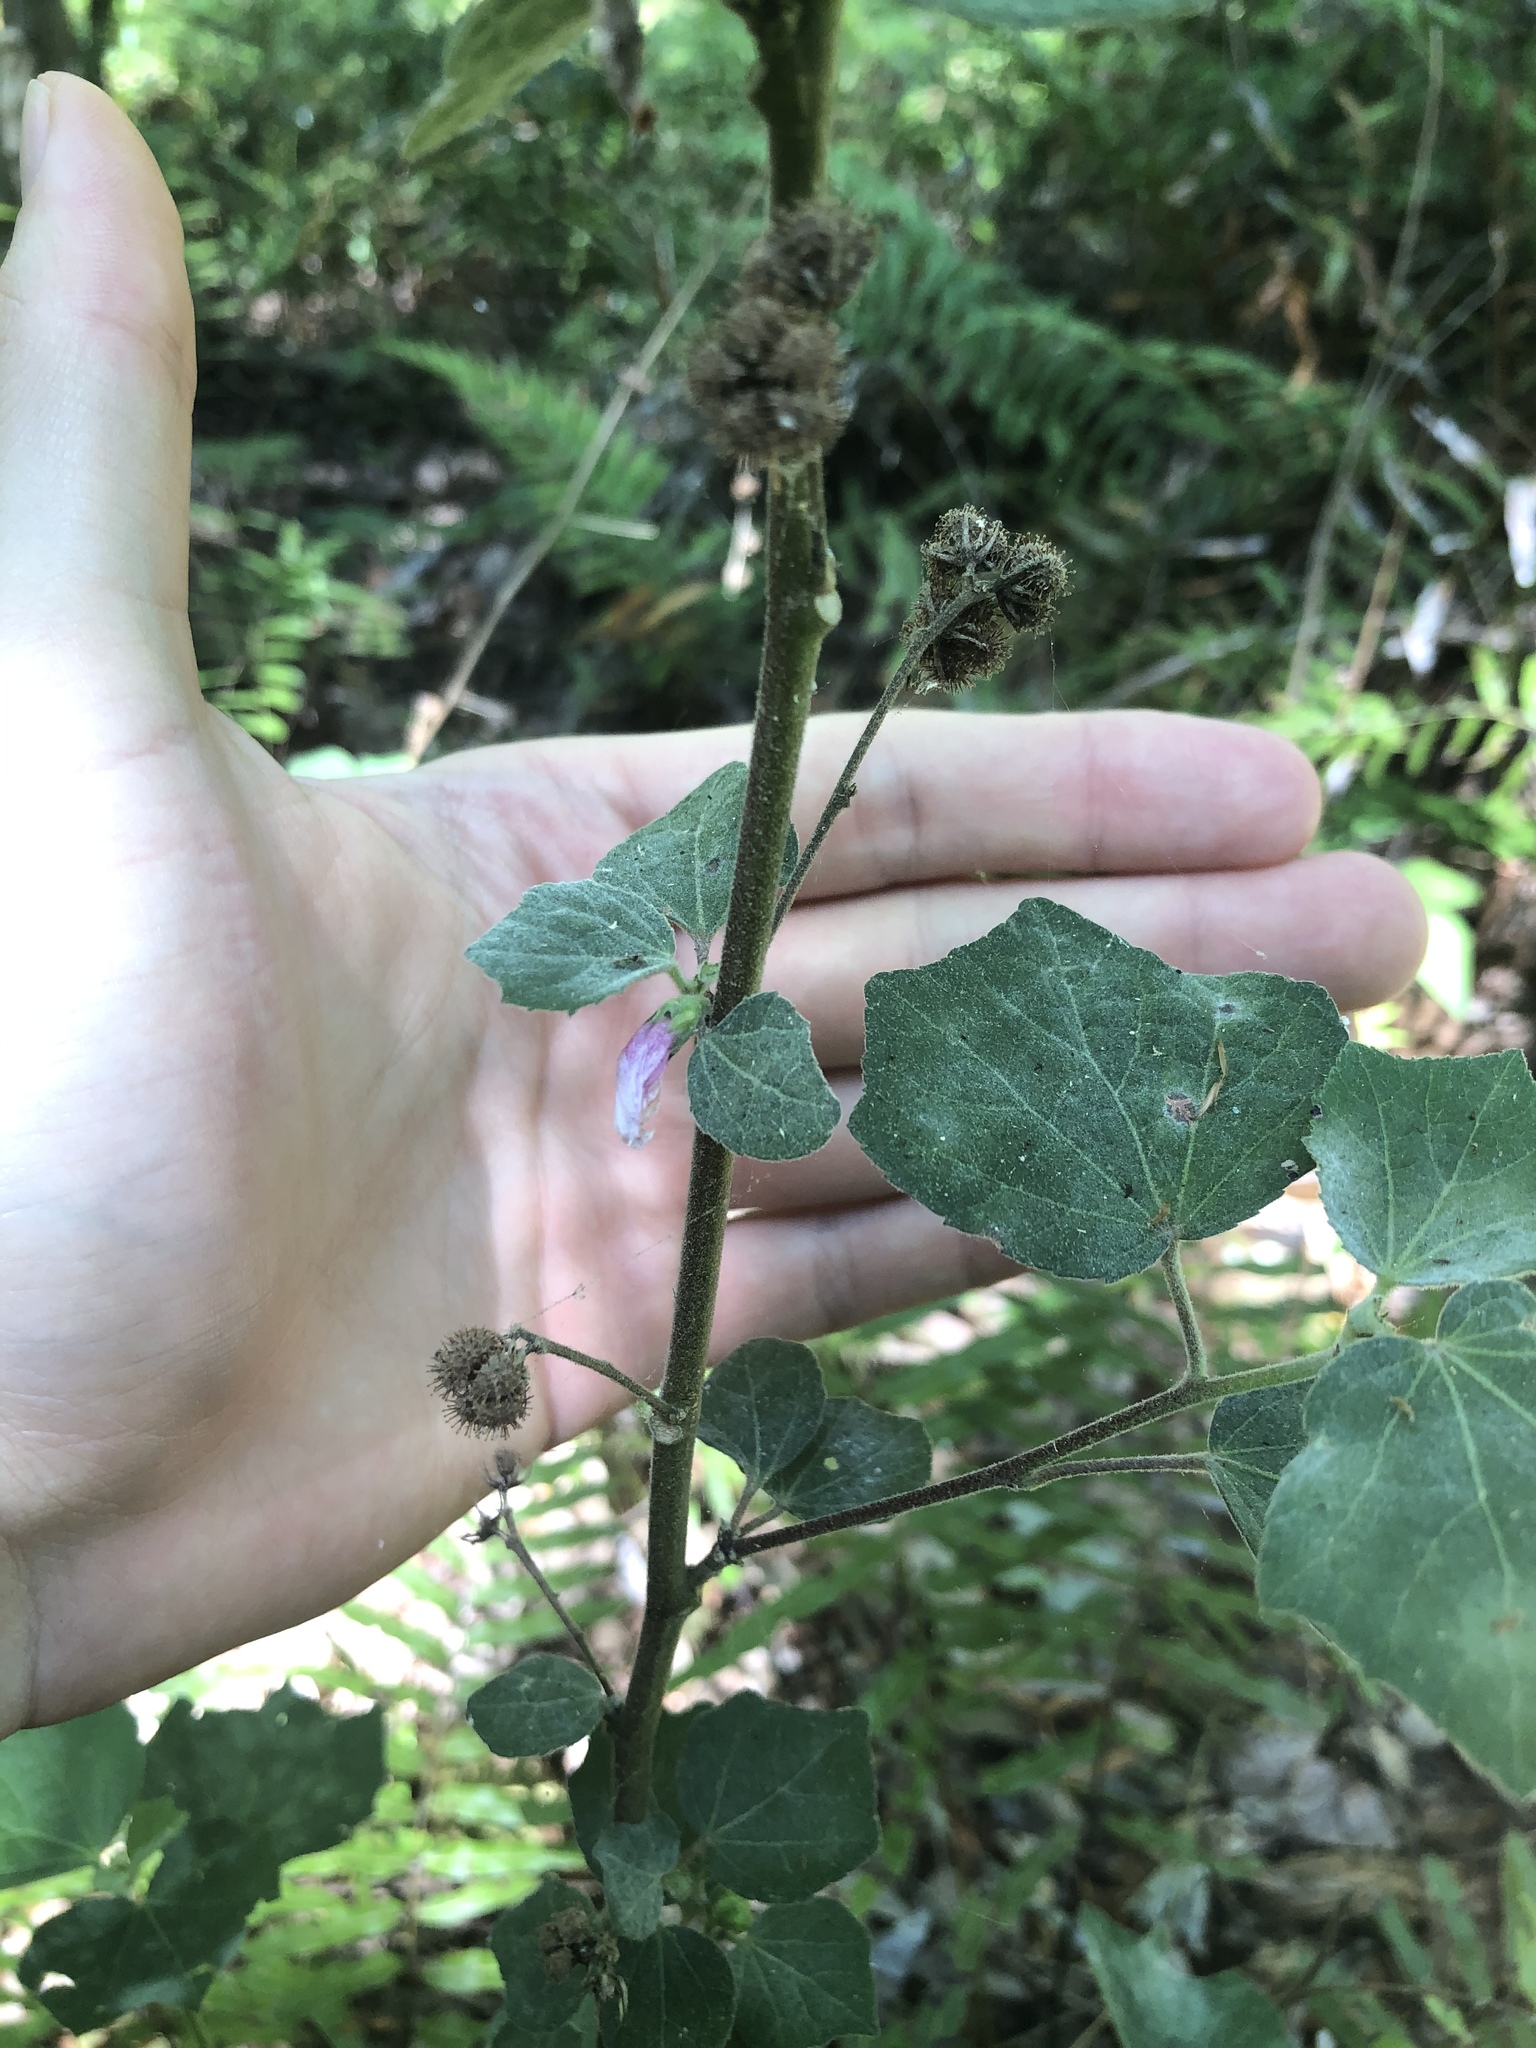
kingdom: Plantae
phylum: Tracheophyta
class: Magnoliopsida
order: Malvales
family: Malvaceae
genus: Urena
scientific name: Urena lobata
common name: Caesarweed
